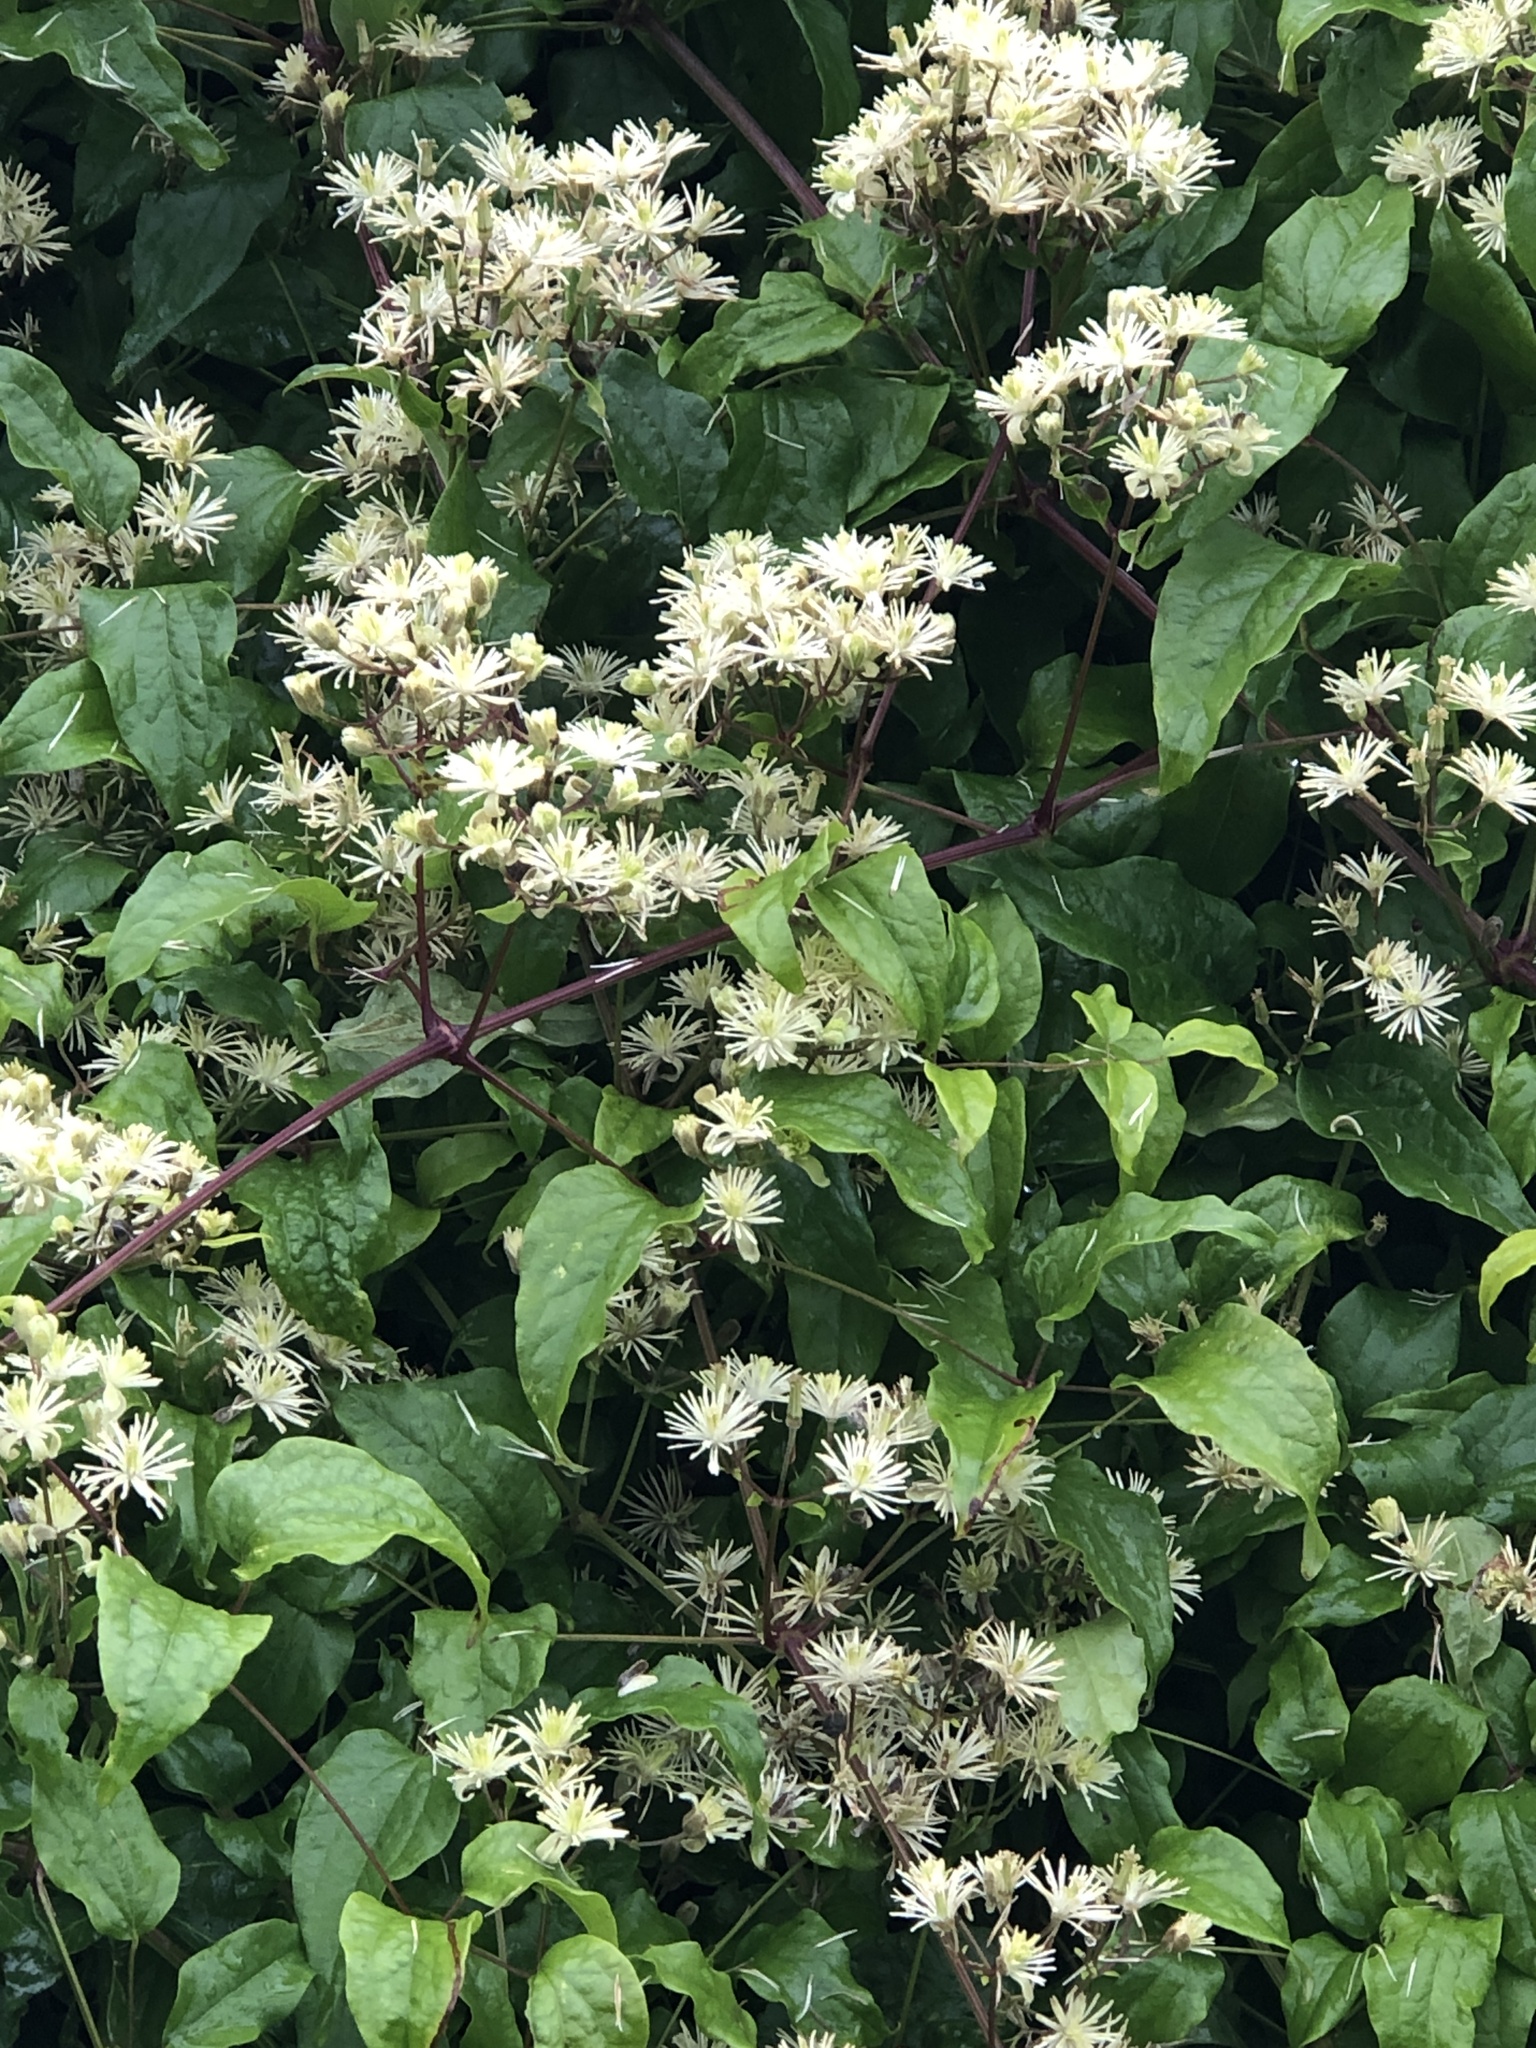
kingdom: Plantae
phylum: Tracheophyta
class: Magnoliopsida
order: Ranunculales
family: Ranunculaceae
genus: Clematis
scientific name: Clematis vitalba
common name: Evergreen clematis
